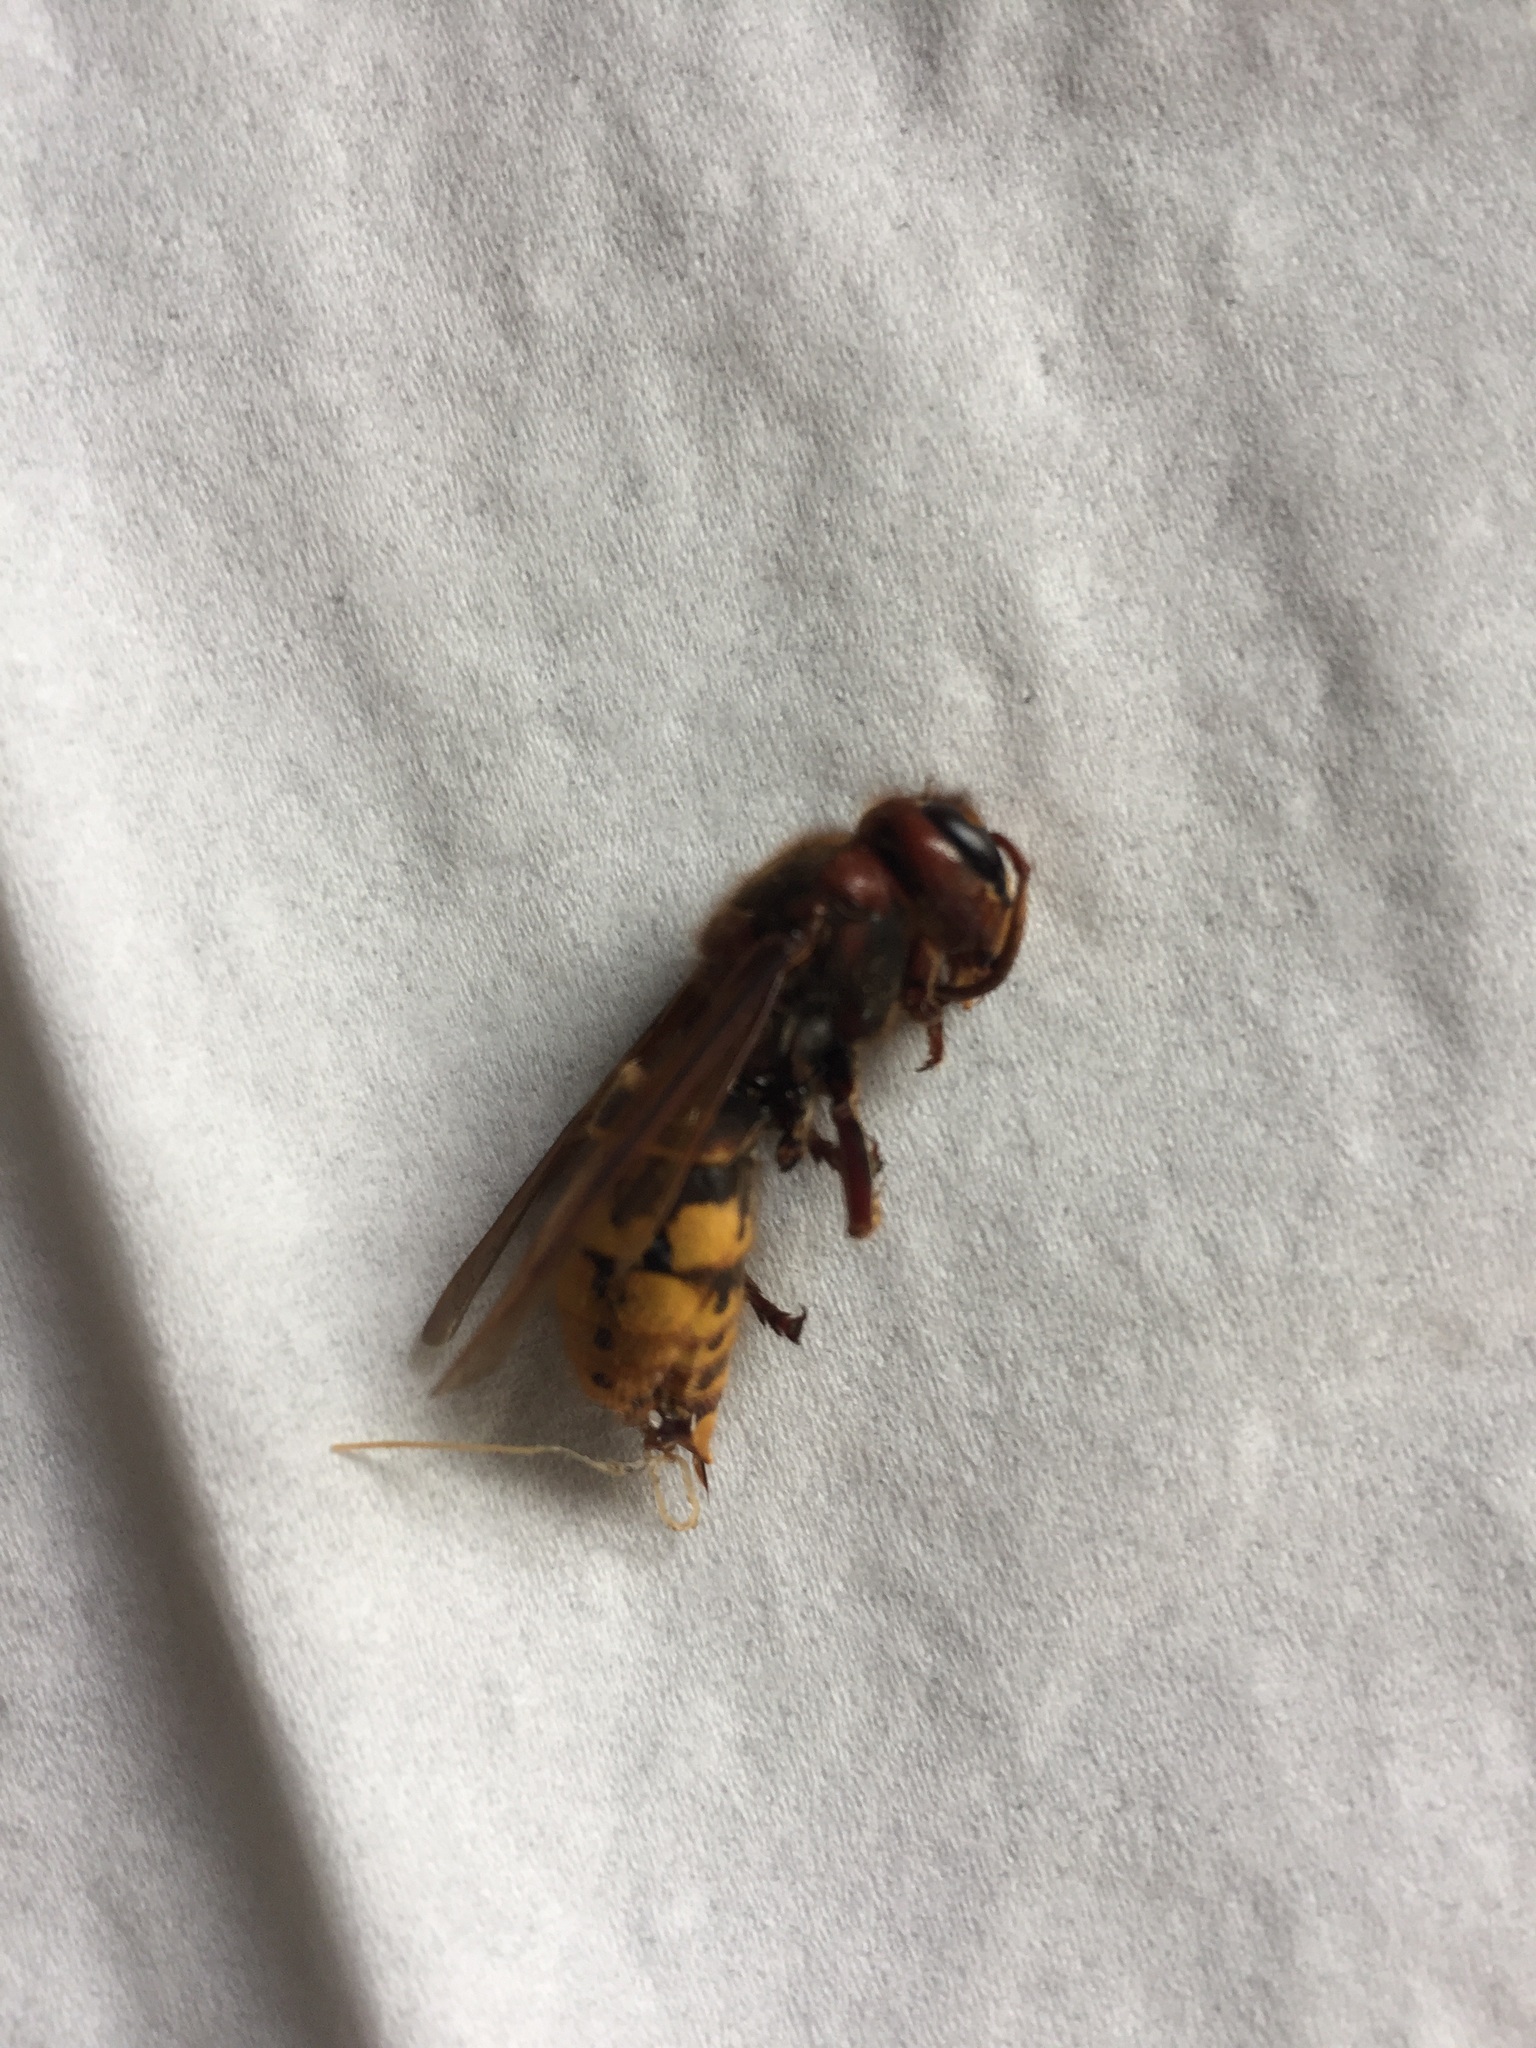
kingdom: Animalia
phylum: Arthropoda
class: Insecta
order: Hymenoptera
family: Vespidae
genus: Vespa
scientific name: Vespa crabro
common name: Hornet
